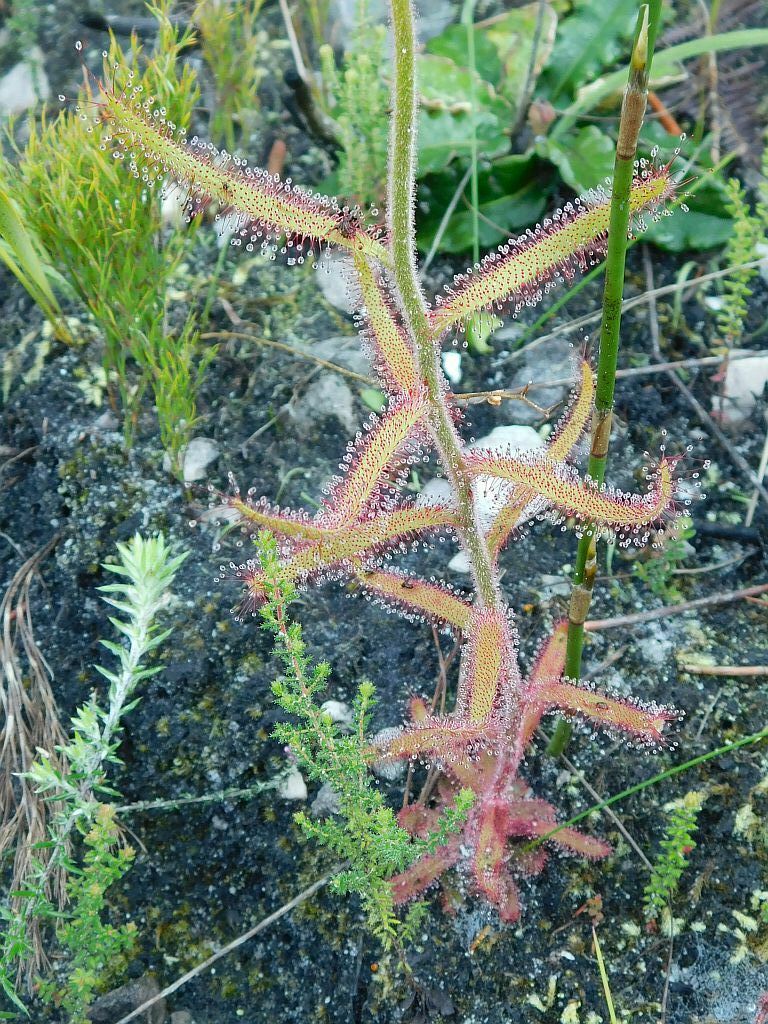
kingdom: Plantae
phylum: Tracheophyta
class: Magnoliopsida
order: Caryophyllales
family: Droseraceae
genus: Drosera
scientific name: Drosera cistiflora
